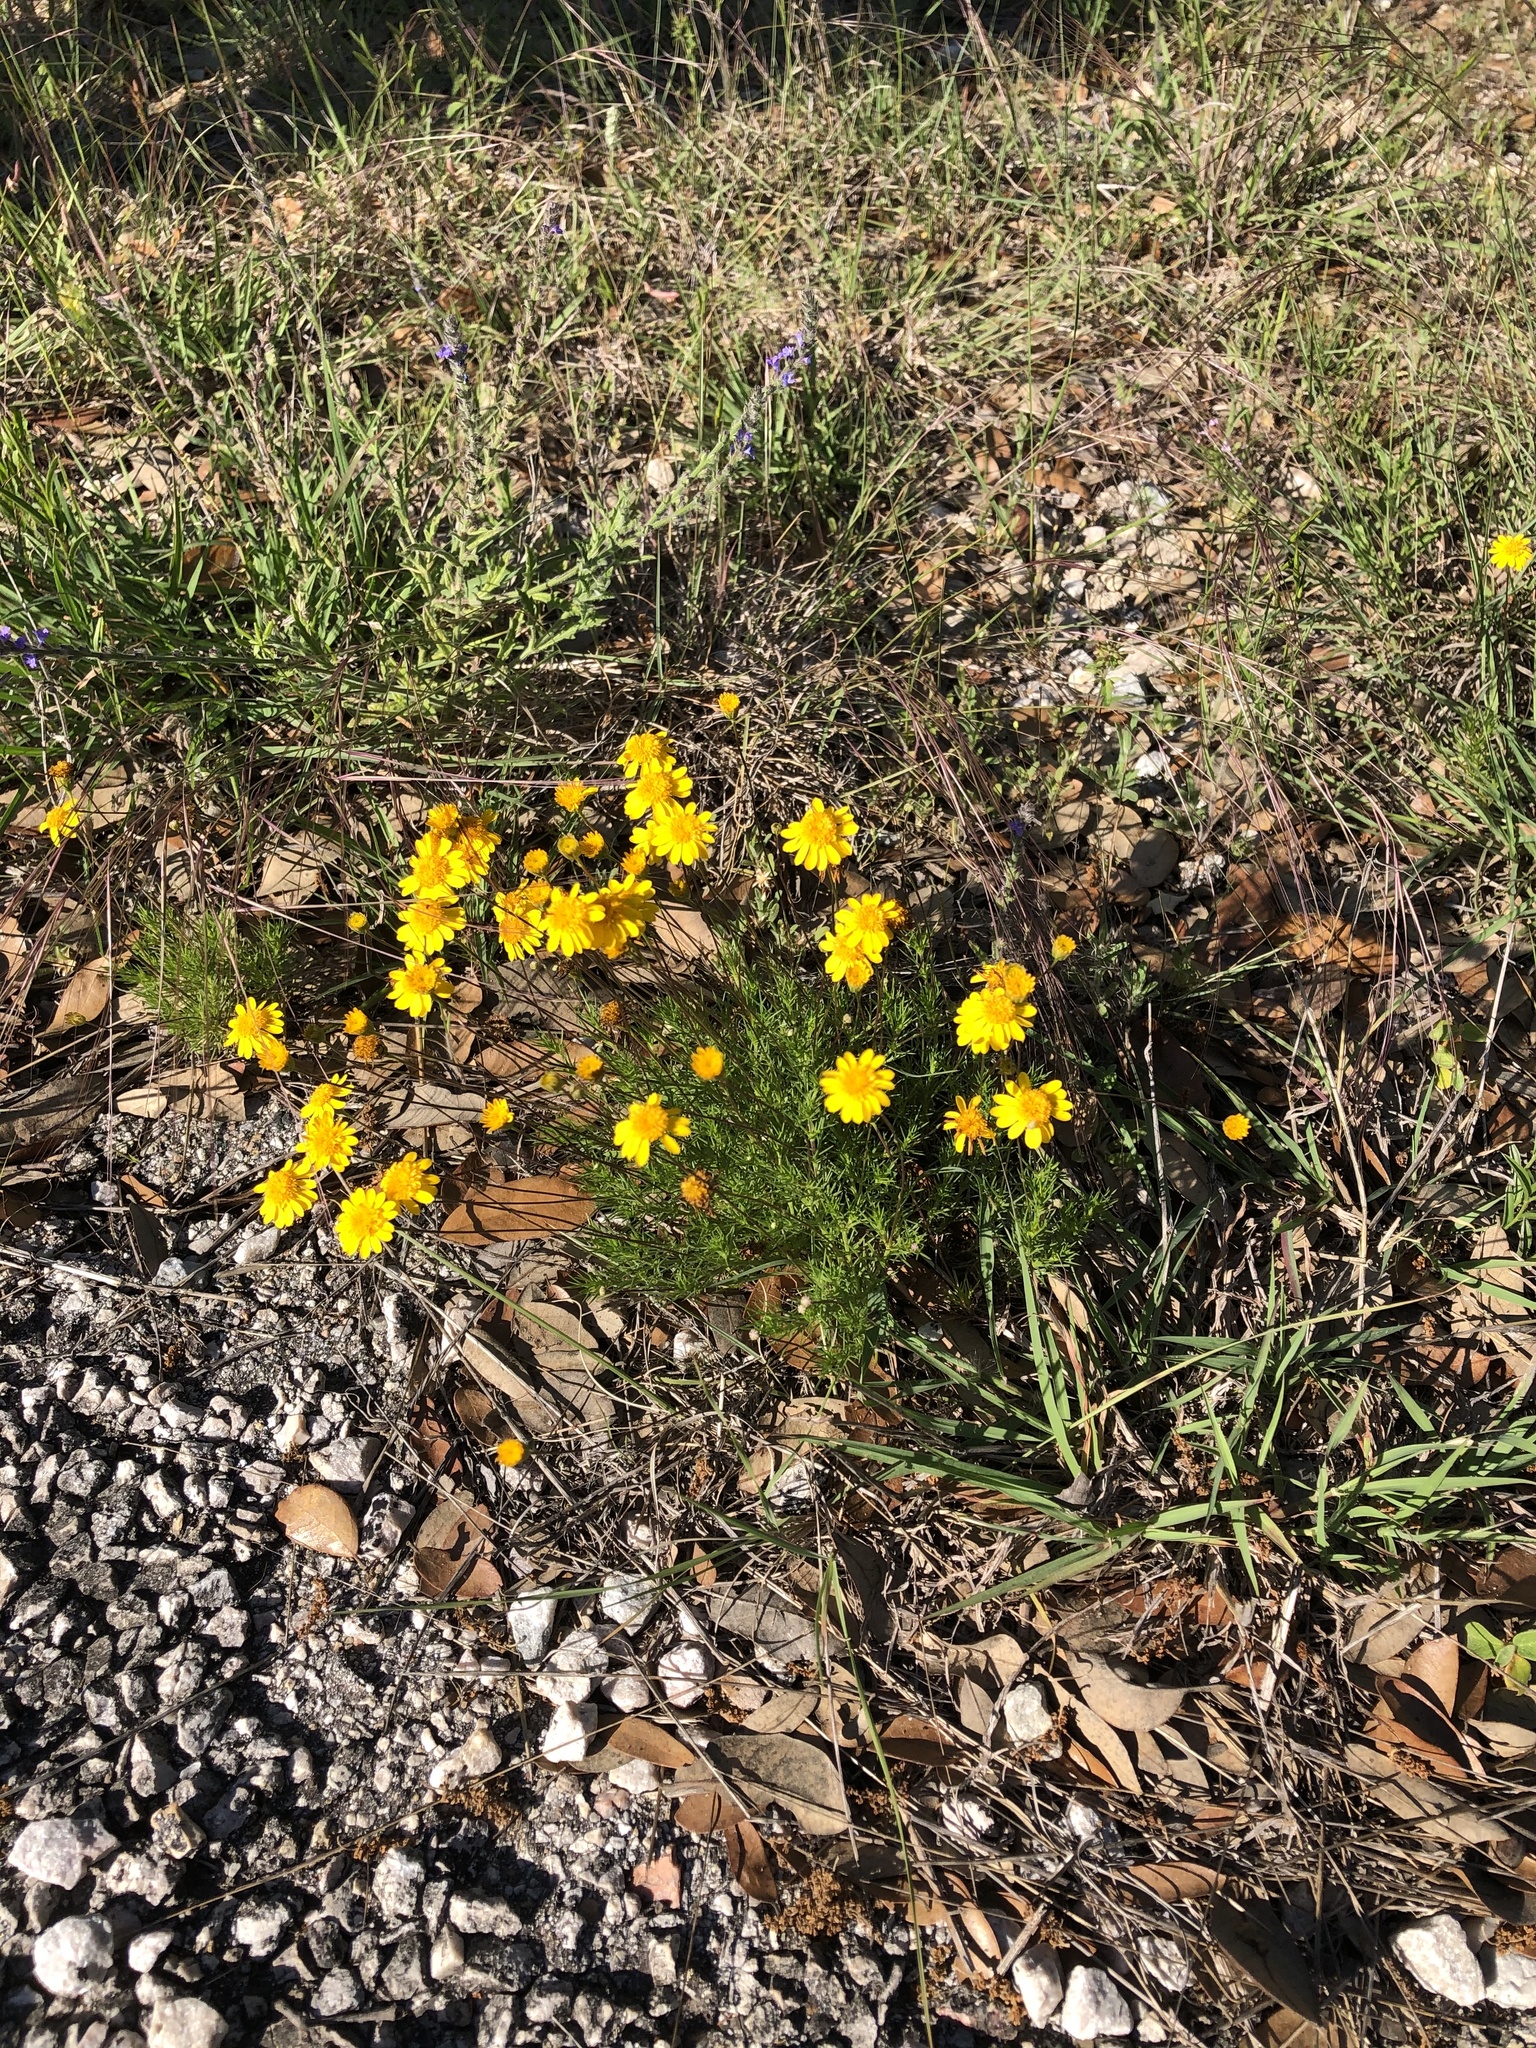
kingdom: Plantae
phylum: Tracheophyta
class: Magnoliopsida
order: Asterales
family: Asteraceae
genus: Thymophylla
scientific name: Thymophylla pentachaeta
